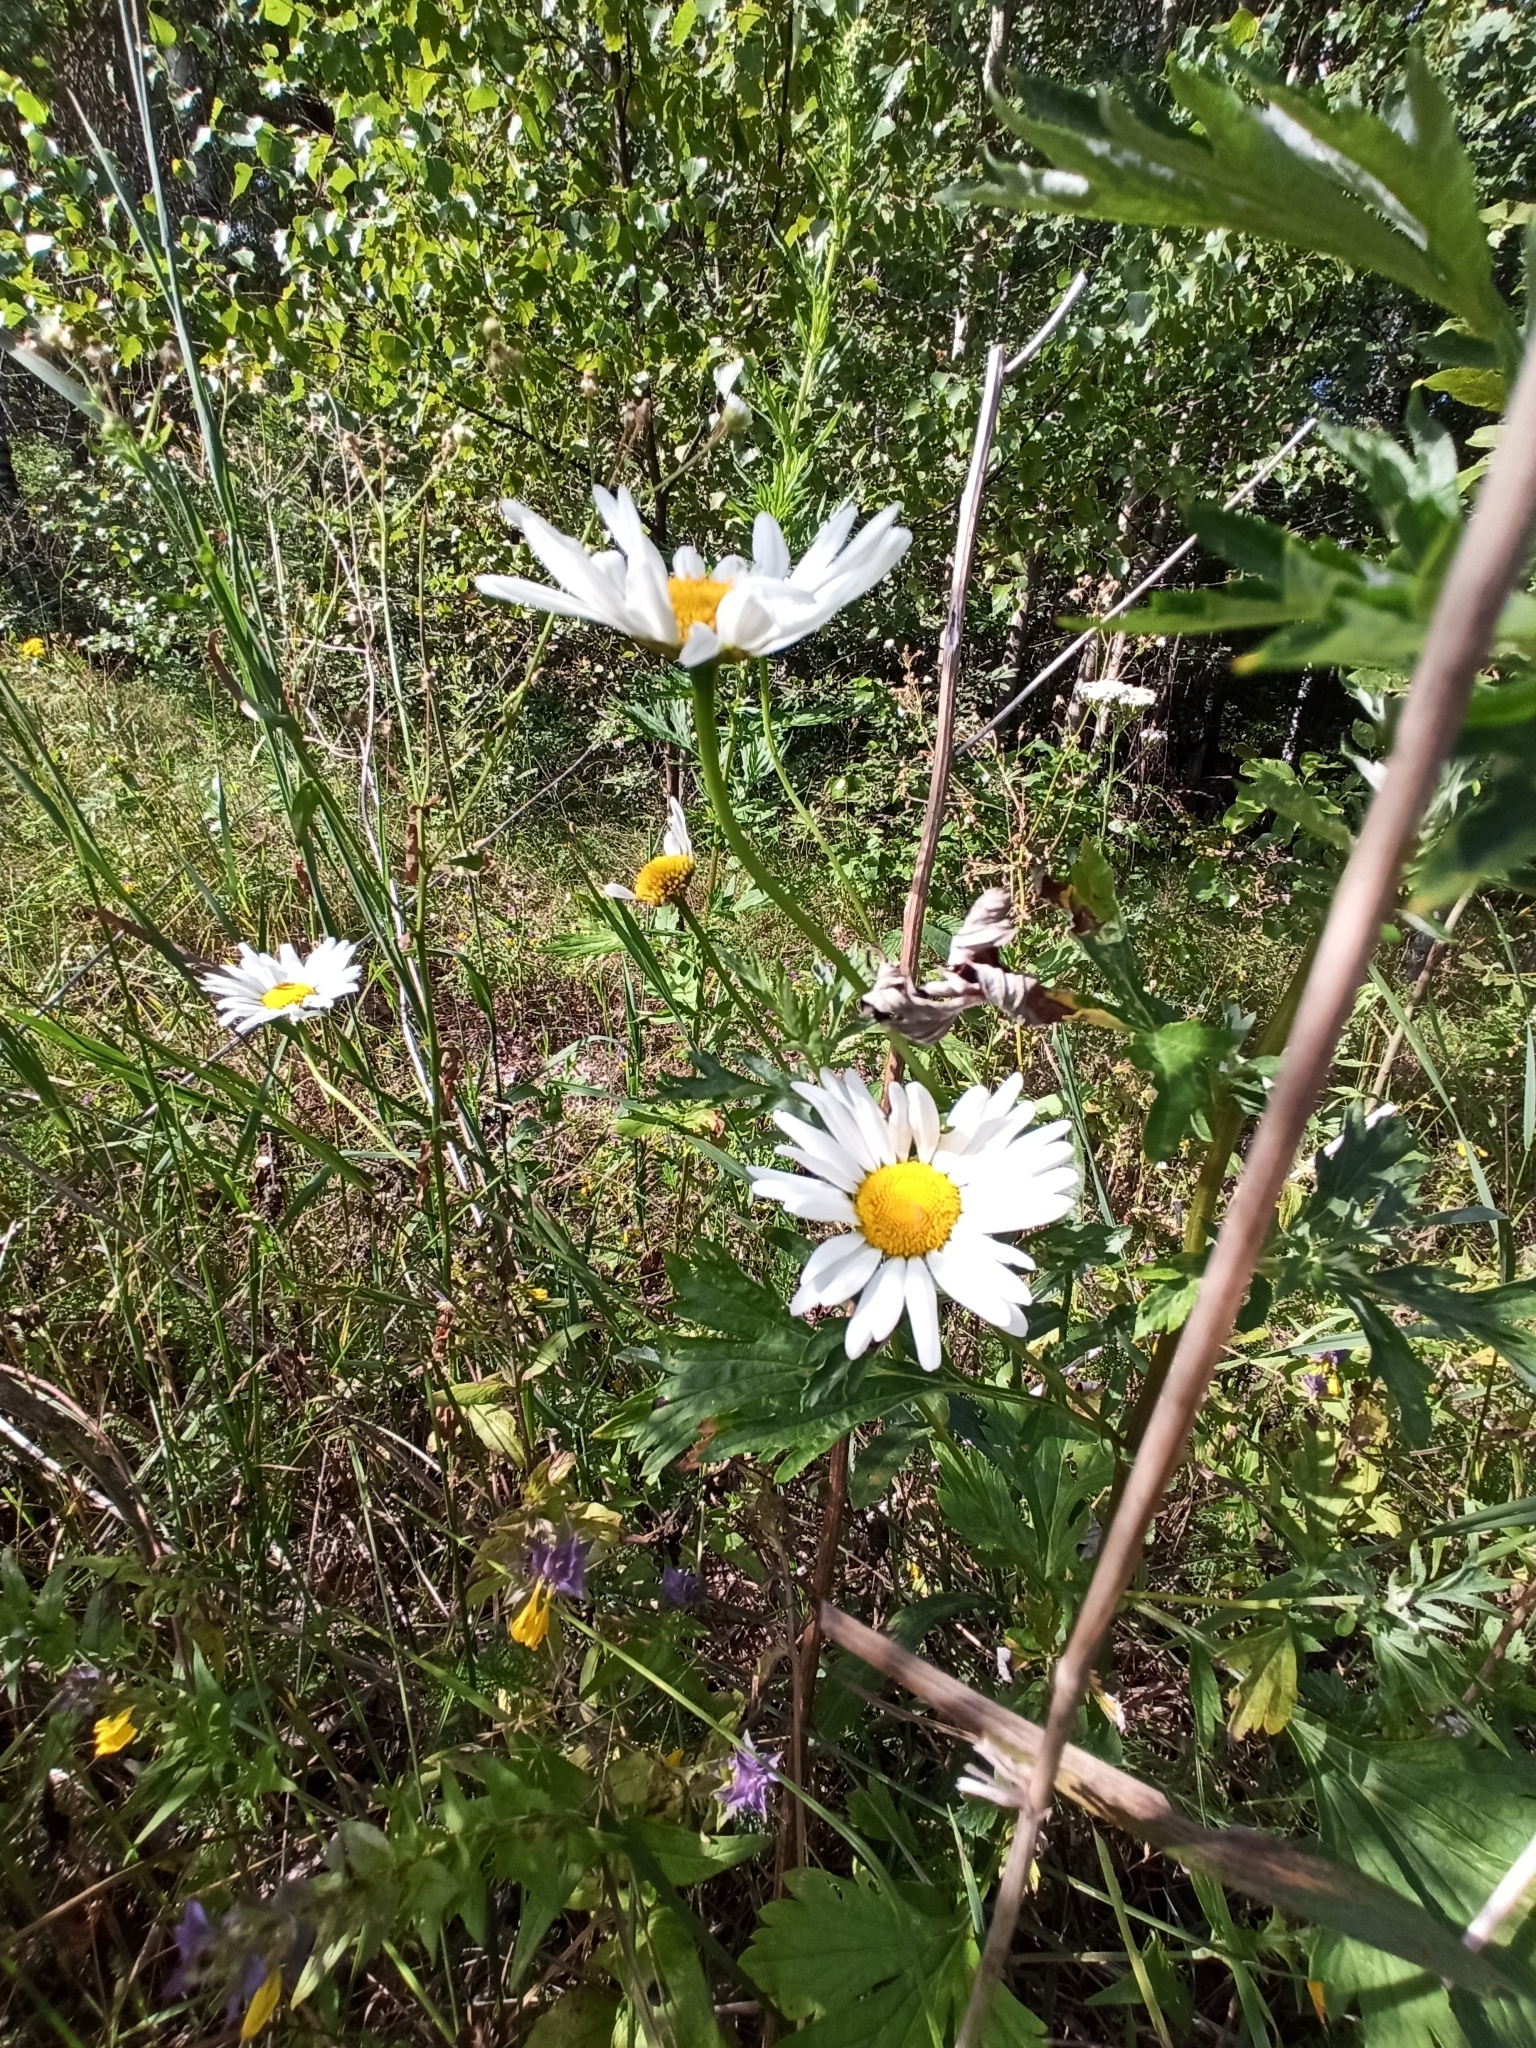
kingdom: Plantae
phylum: Tracheophyta
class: Magnoliopsida
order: Asterales
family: Asteraceae
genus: Leucanthemum
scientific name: Leucanthemum vulgare
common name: Oxeye daisy
